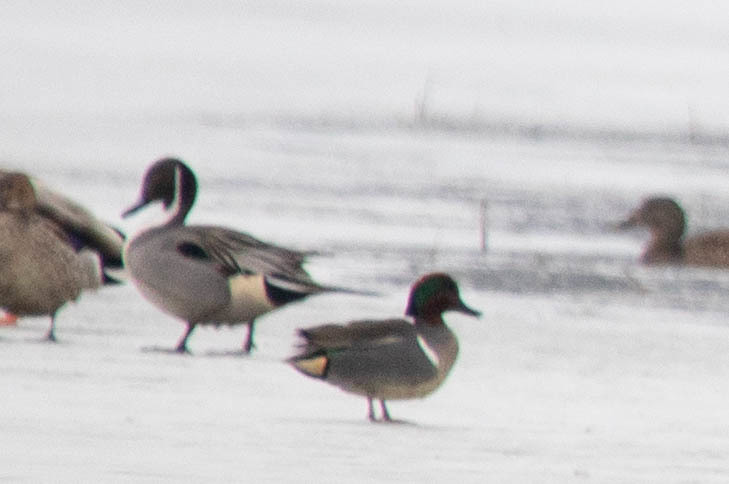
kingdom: Animalia
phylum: Chordata
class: Aves
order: Anseriformes
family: Anatidae
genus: Anas
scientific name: Anas carolinensis
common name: Green-winged teal
